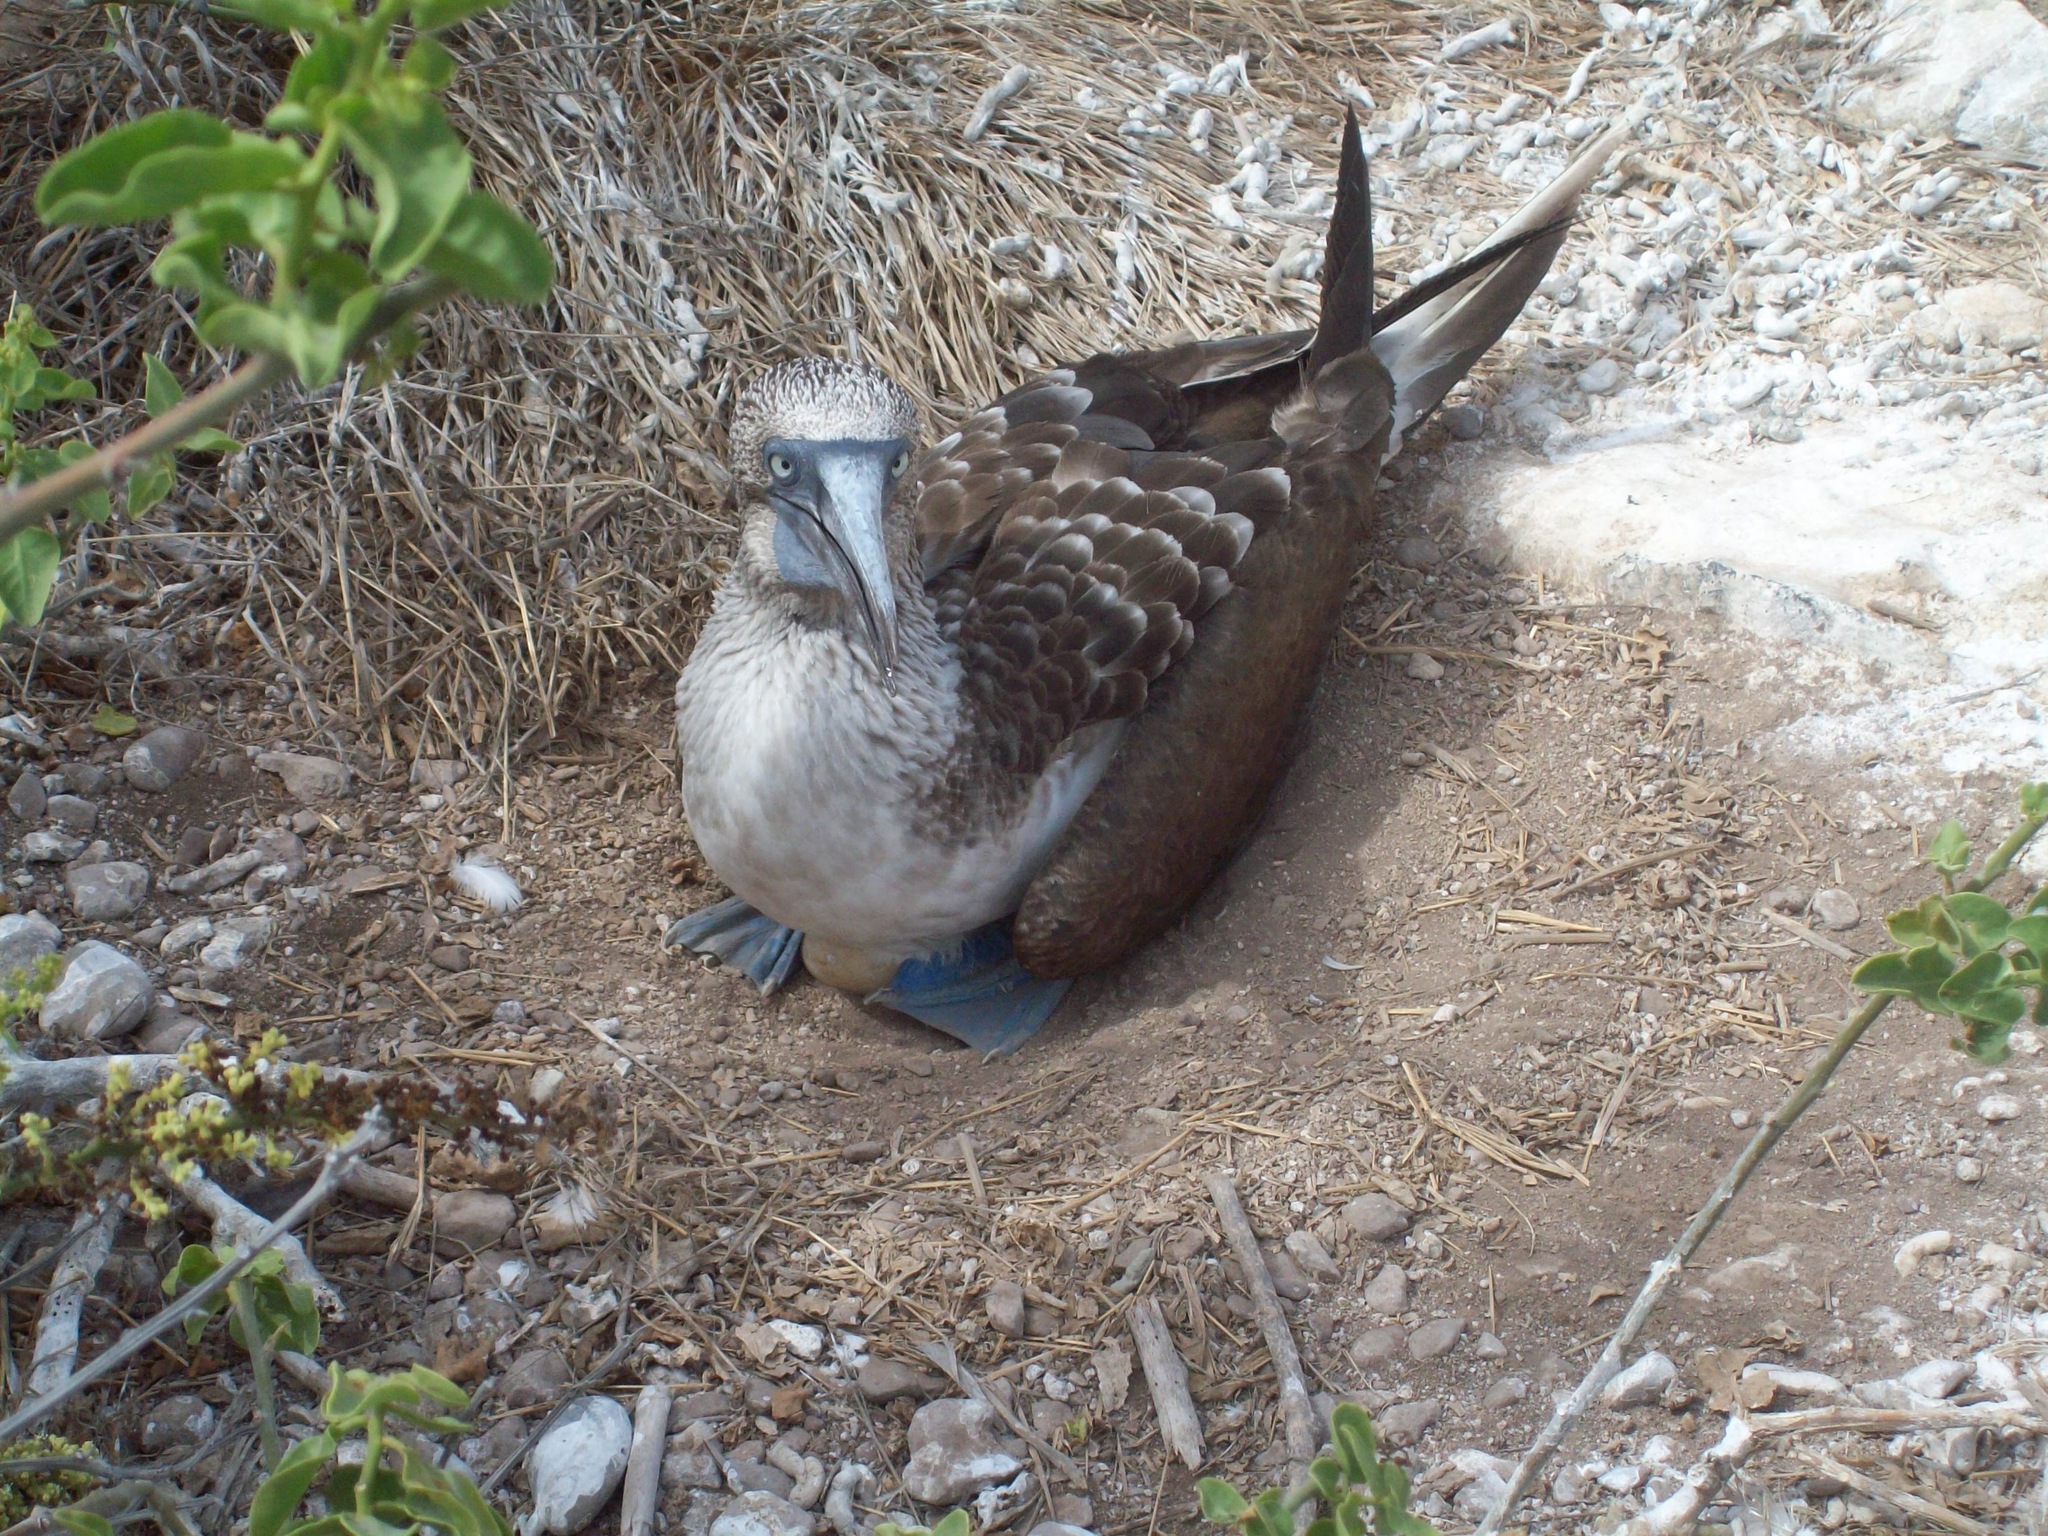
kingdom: Animalia
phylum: Chordata
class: Aves
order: Suliformes
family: Sulidae
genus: Sula
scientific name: Sula nebouxii
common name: Blue-footed booby
